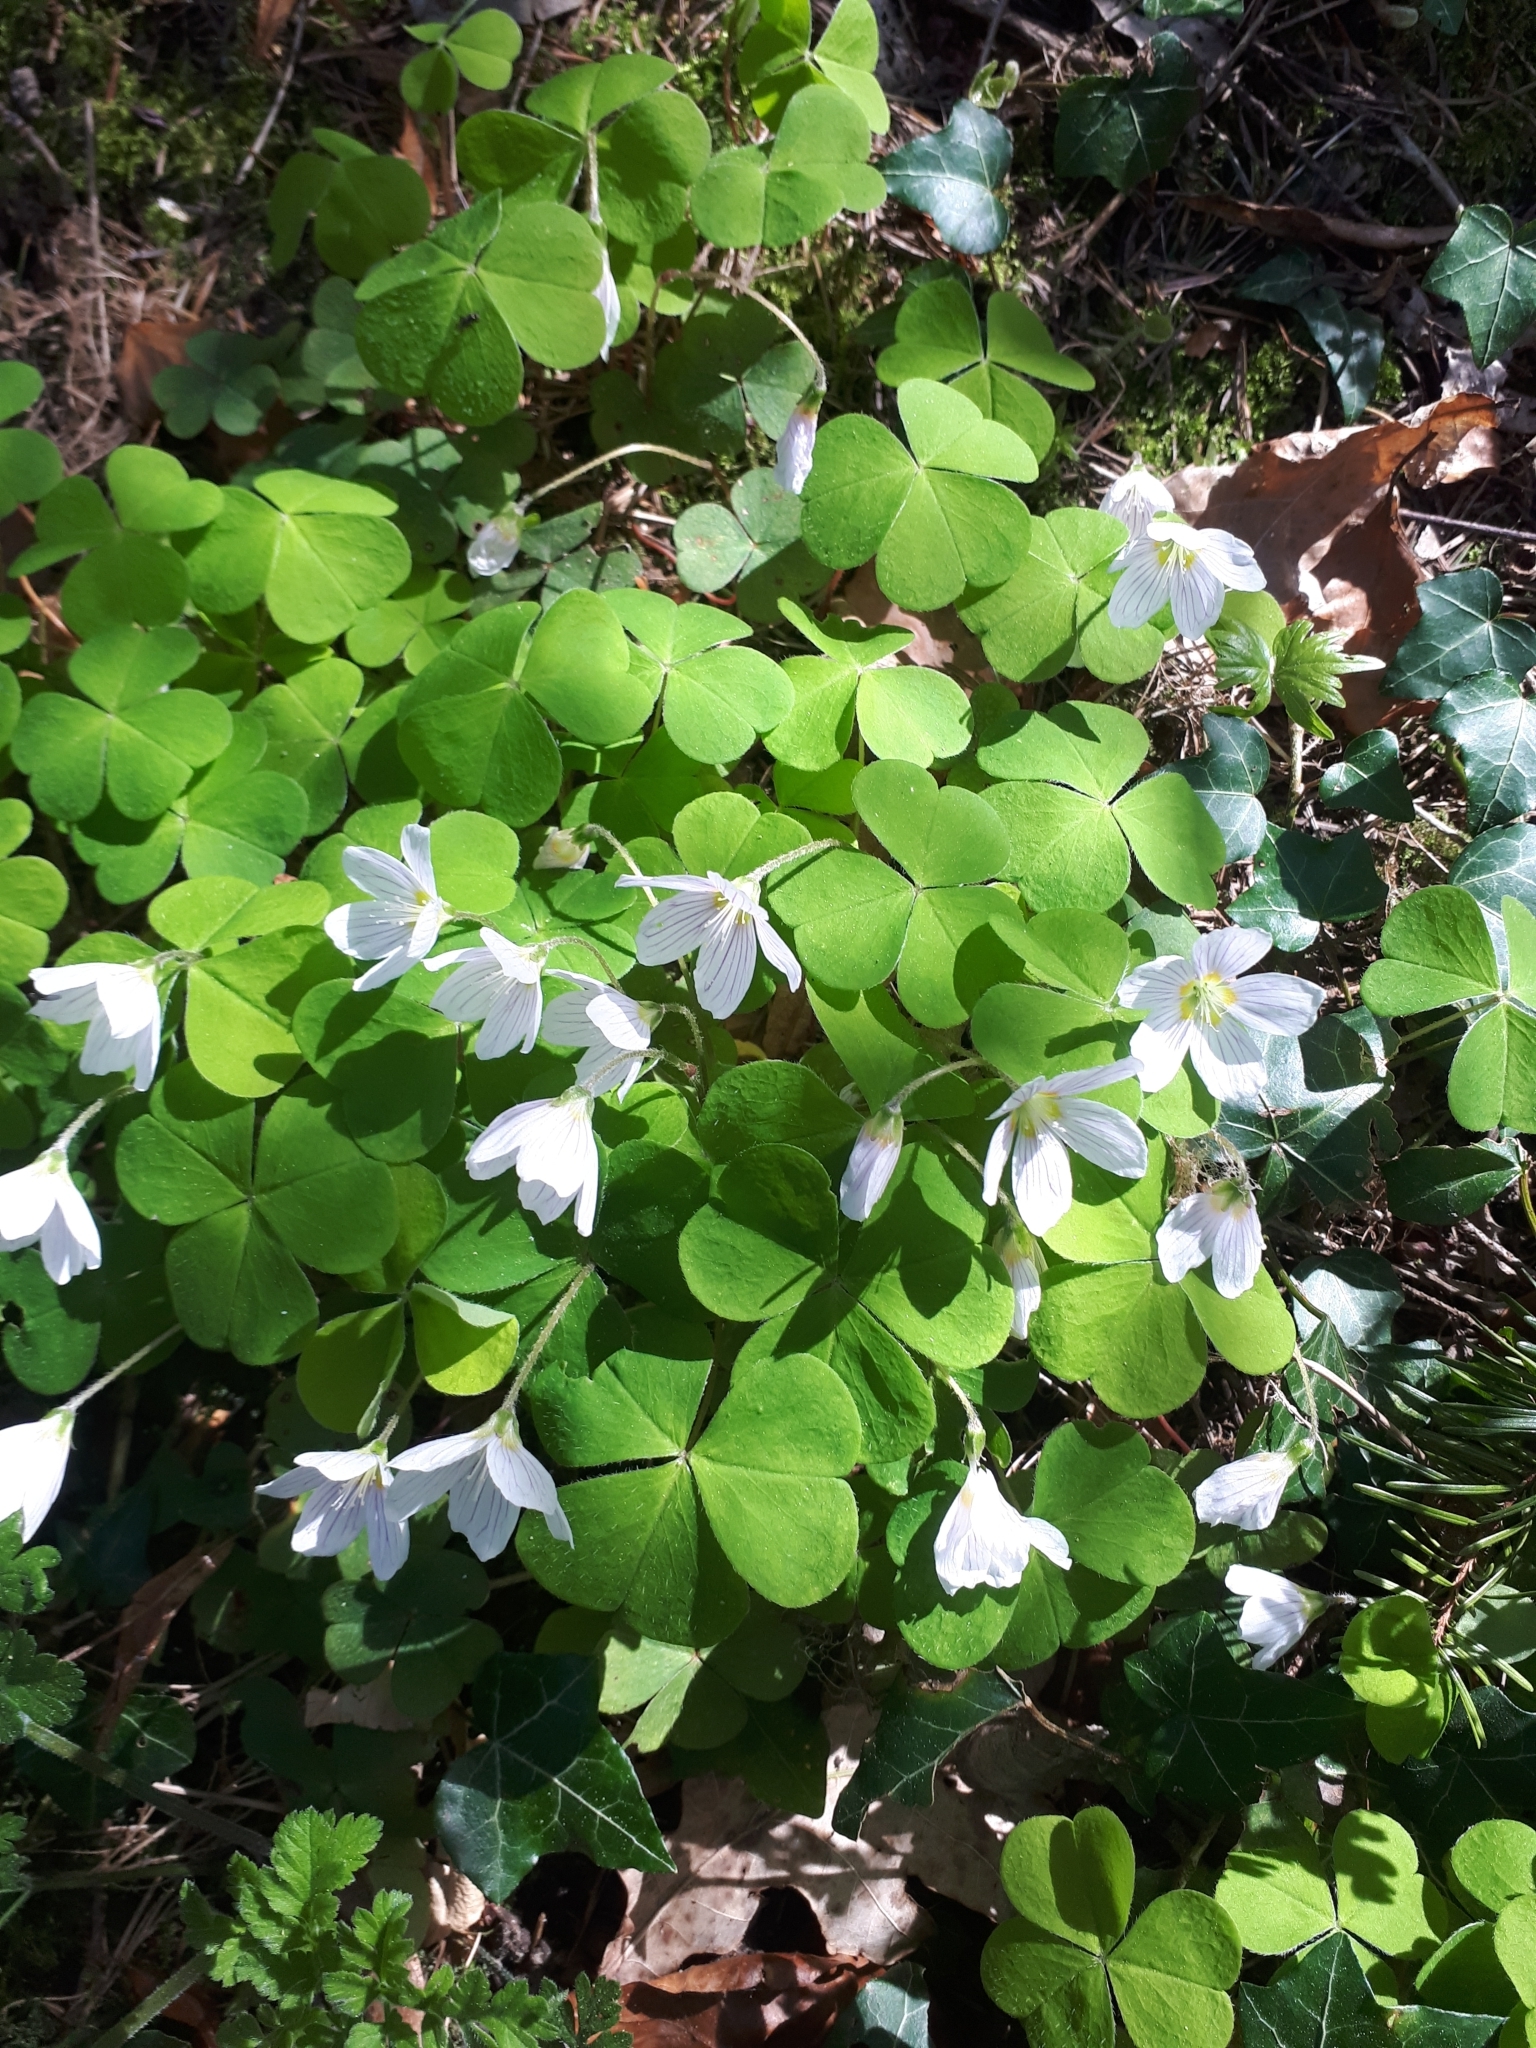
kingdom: Plantae
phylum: Tracheophyta
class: Magnoliopsida
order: Oxalidales
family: Oxalidaceae
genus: Oxalis
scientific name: Oxalis acetosella
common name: Wood-sorrel
